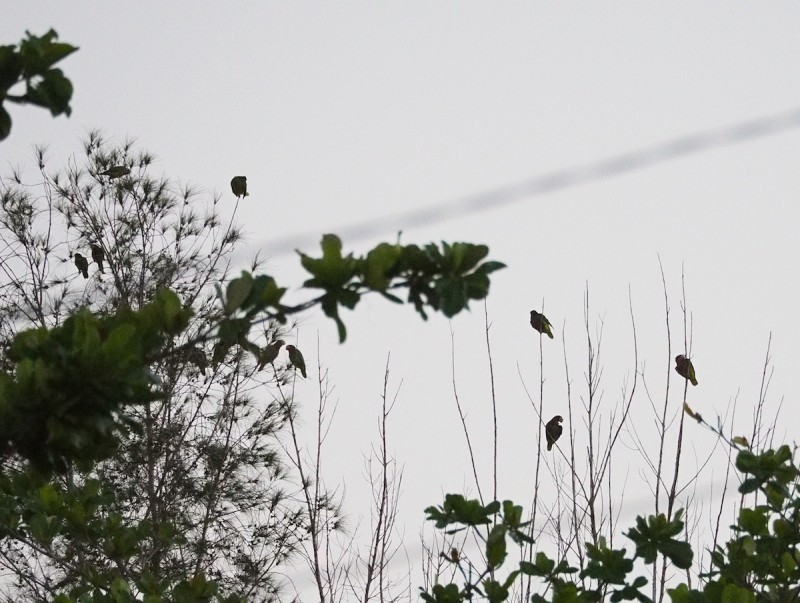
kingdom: Animalia
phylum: Chordata
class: Aves
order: Psittaciformes
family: Psittacidae
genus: Amazona
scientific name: Amazona leucocephala
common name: Cuban amazon
